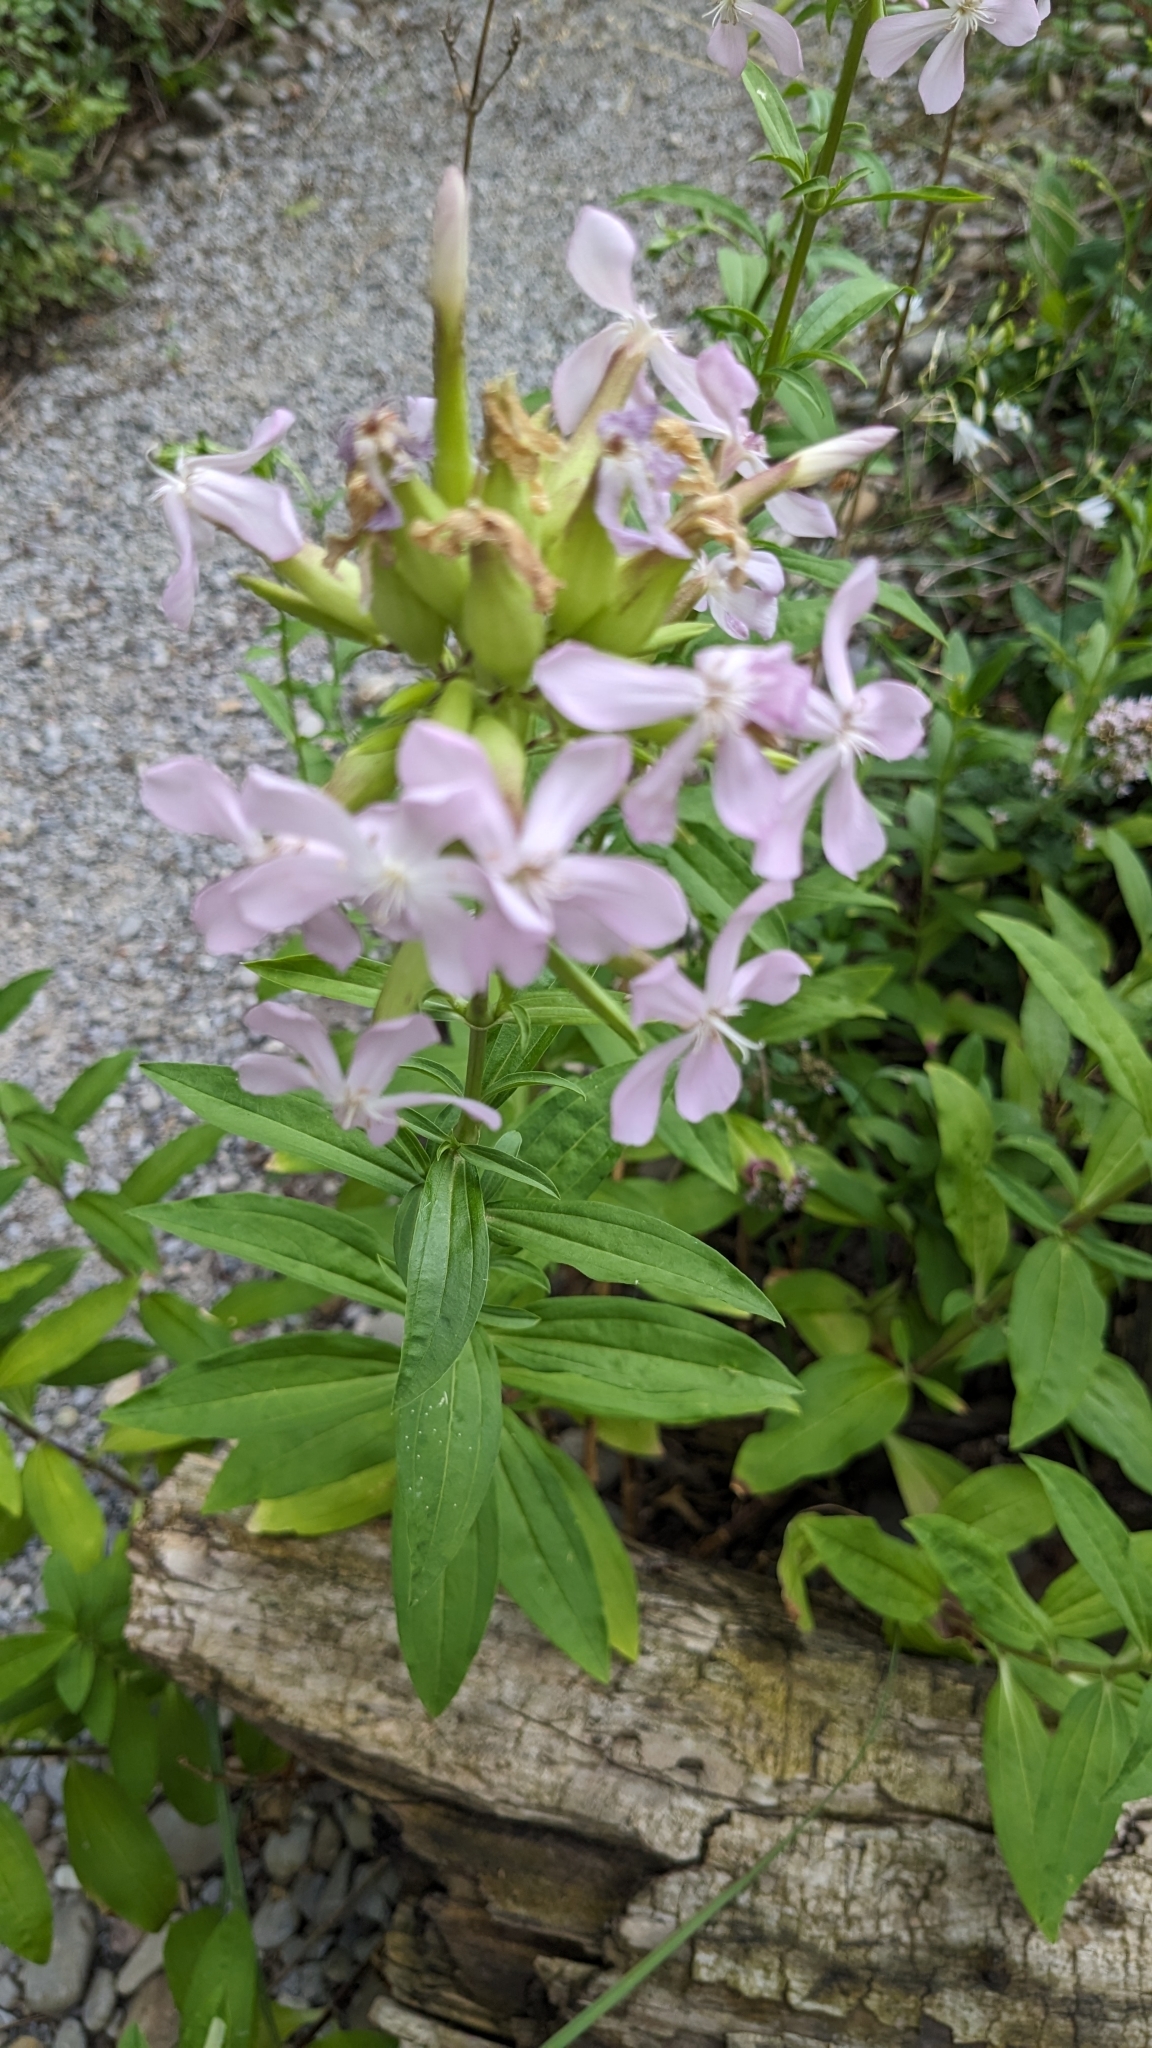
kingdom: Plantae
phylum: Tracheophyta
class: Magnoliopsida
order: Caryophyllales
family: Caryophyllaceae
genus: Saponaria
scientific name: Saponaria officinalis
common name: Soapwort
